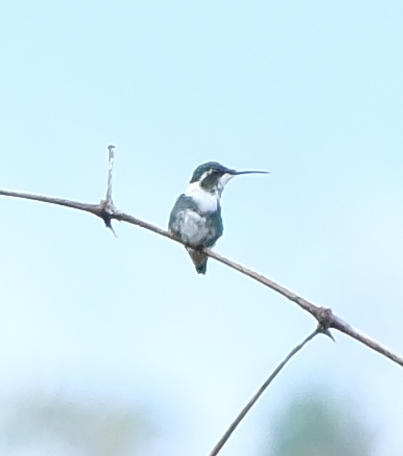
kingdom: Animalia
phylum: Chordata
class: Aves
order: Apodiformes
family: Trochilidae
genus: Chaetocercus
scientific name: Chaetocercus mulsant
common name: White-bellied woodstar
